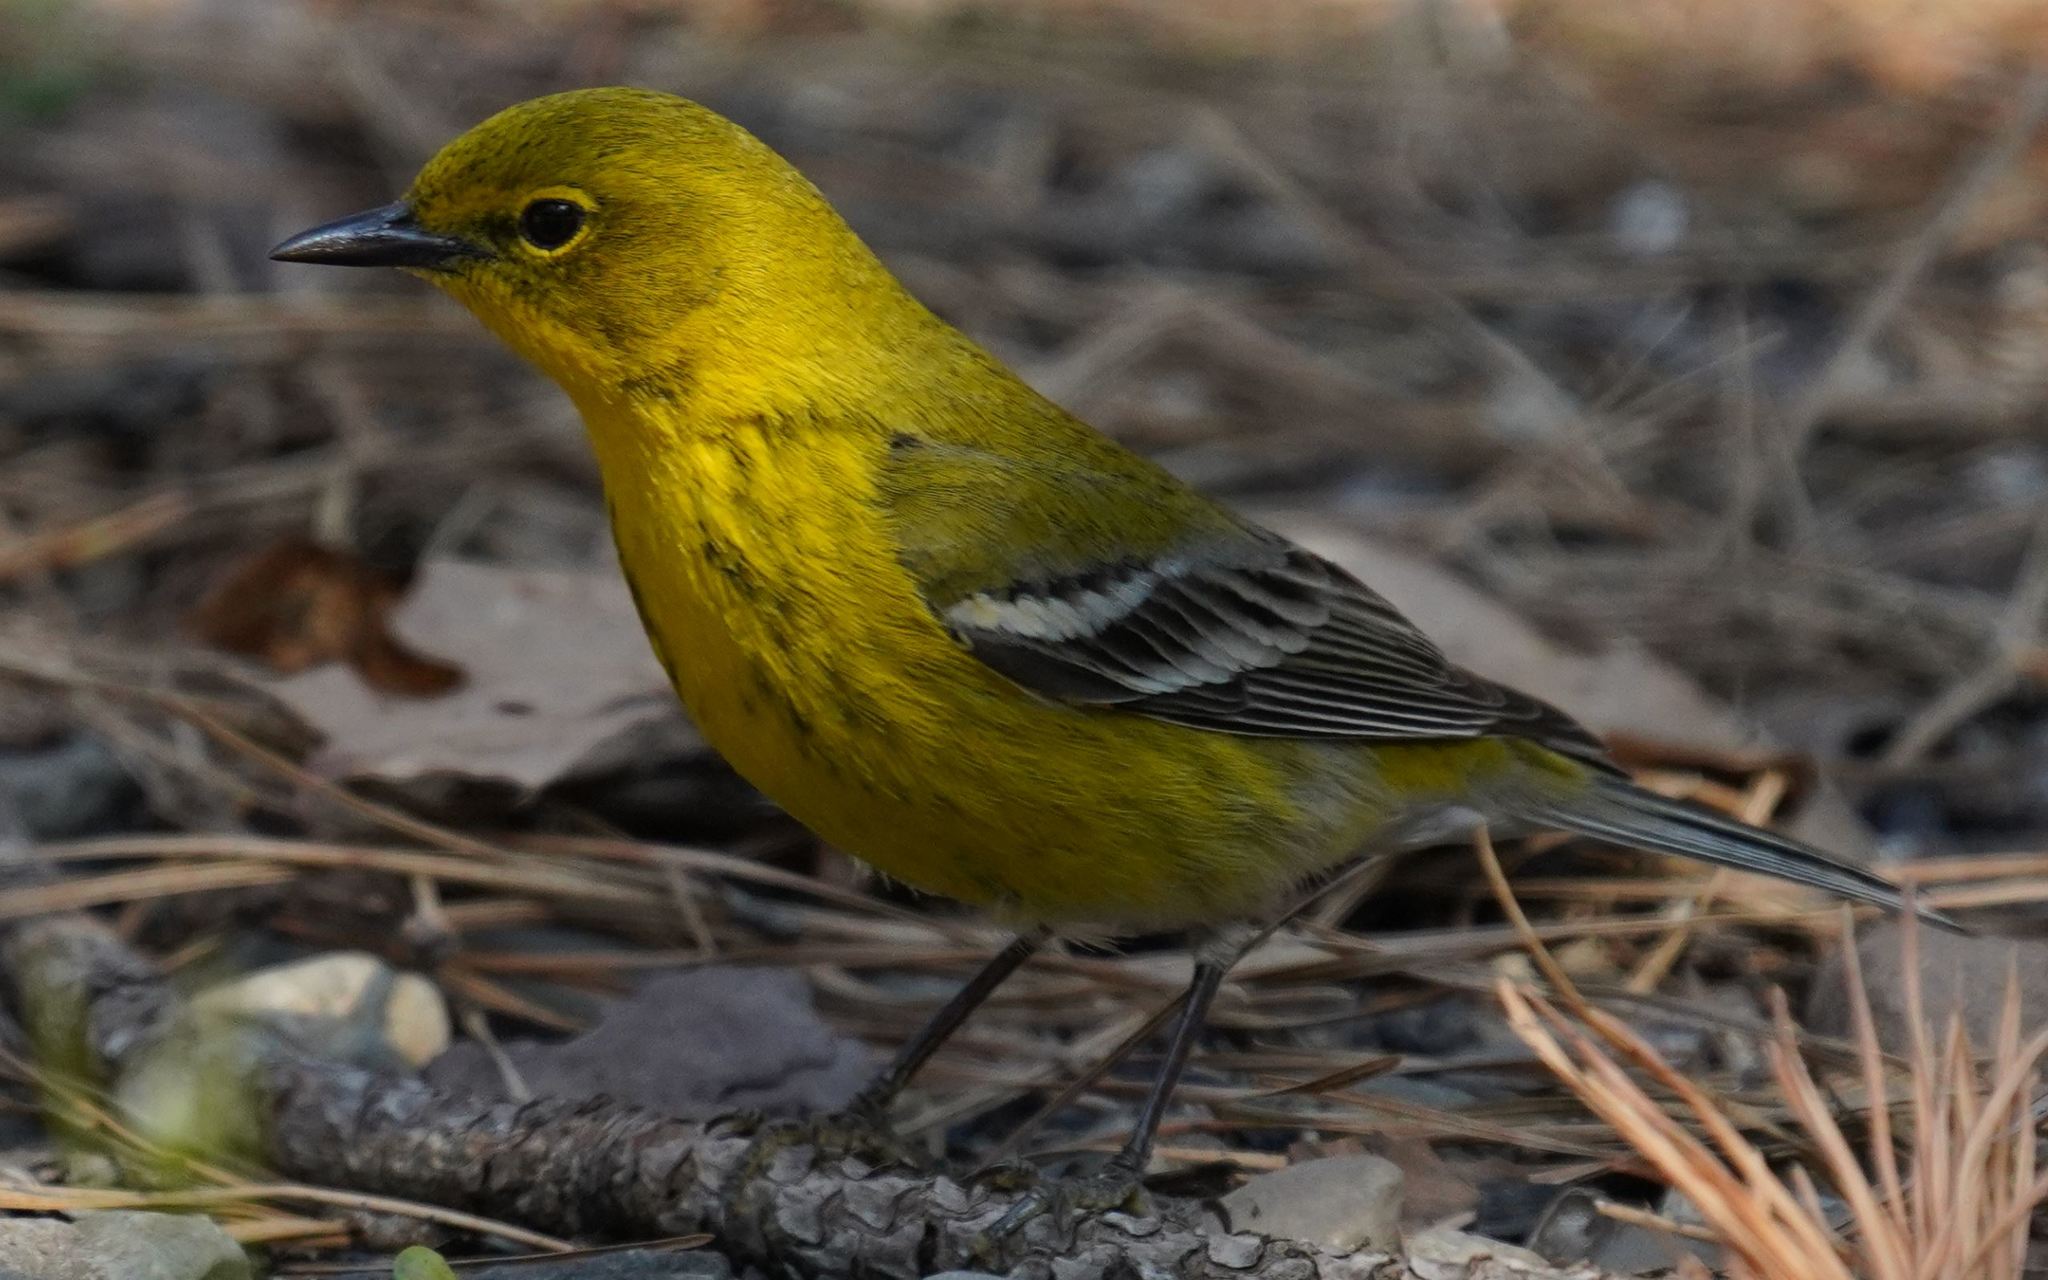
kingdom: Animalia
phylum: Chordata
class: Aves
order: Passeriformes
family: Parulidae
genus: Setophaga
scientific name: Setophaga pinus
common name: Pine warbler
